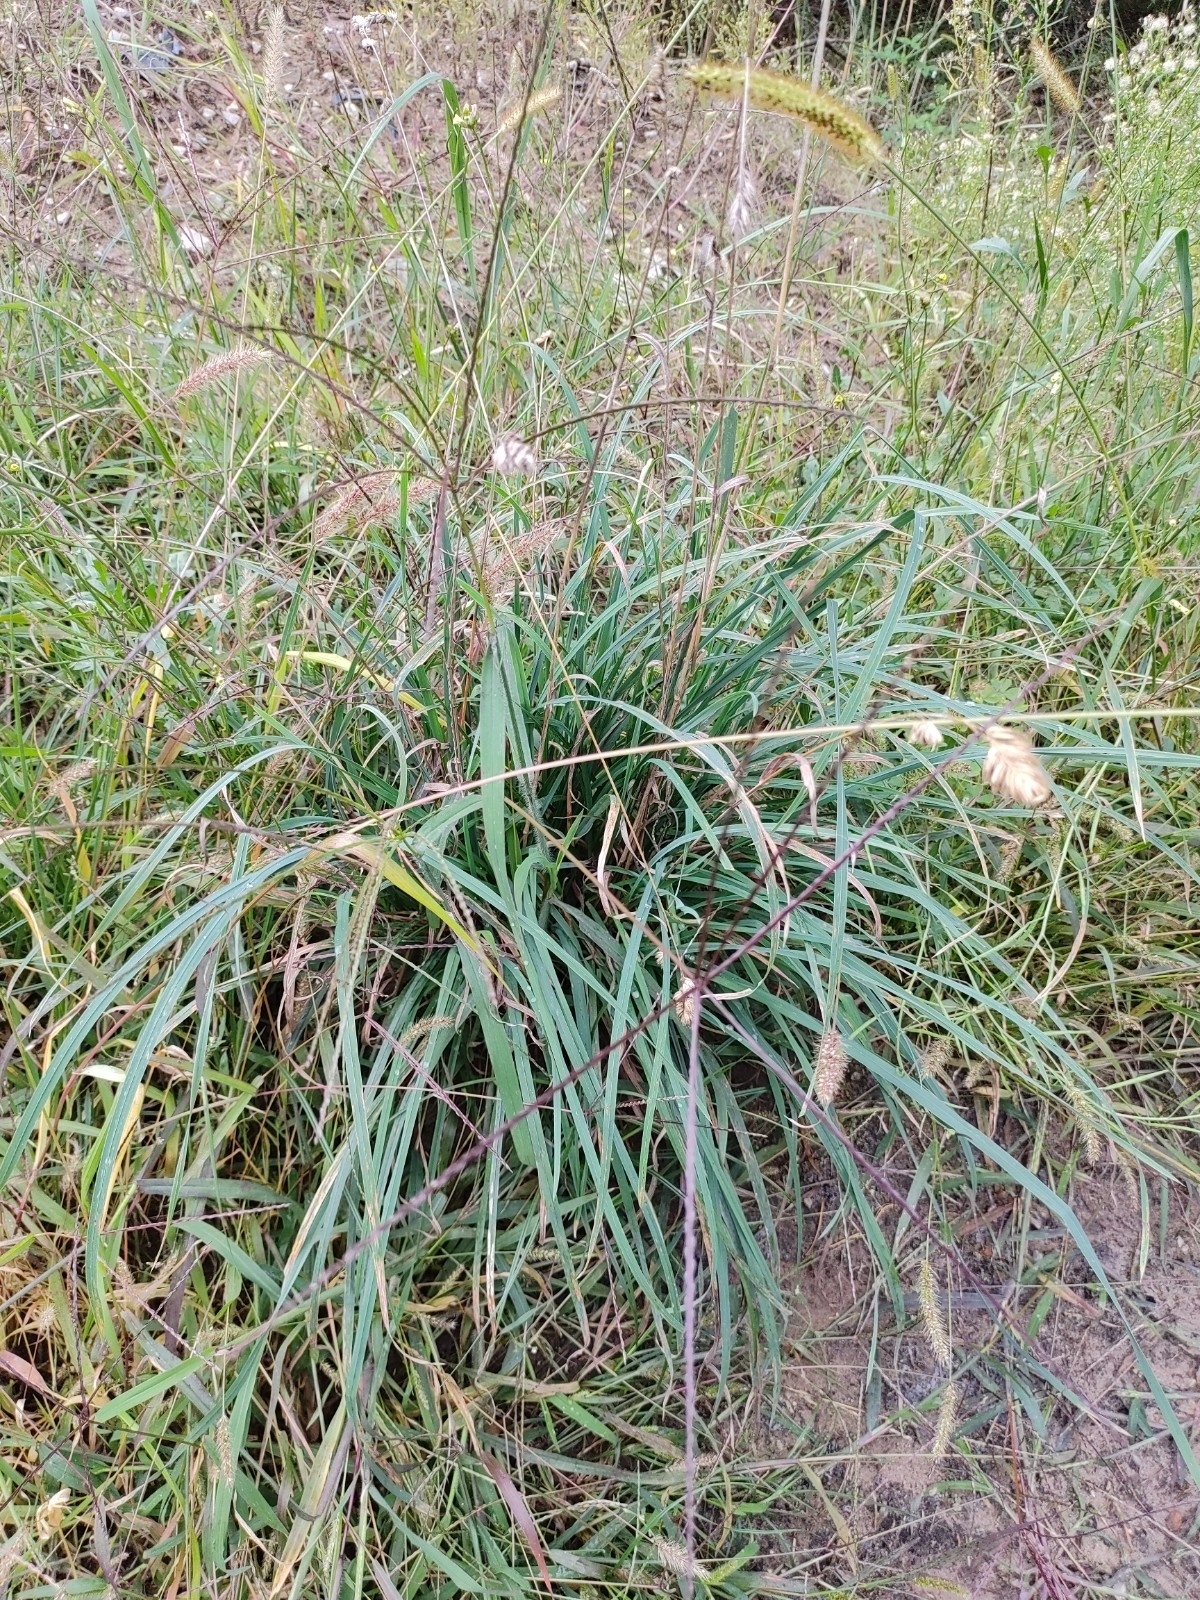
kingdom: Plantae
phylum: Tracheophyta
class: Liliopsida
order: Poales
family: Poaceae
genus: Digitaria
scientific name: Digitaria sanguinalis
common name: Hairy crabgrass
